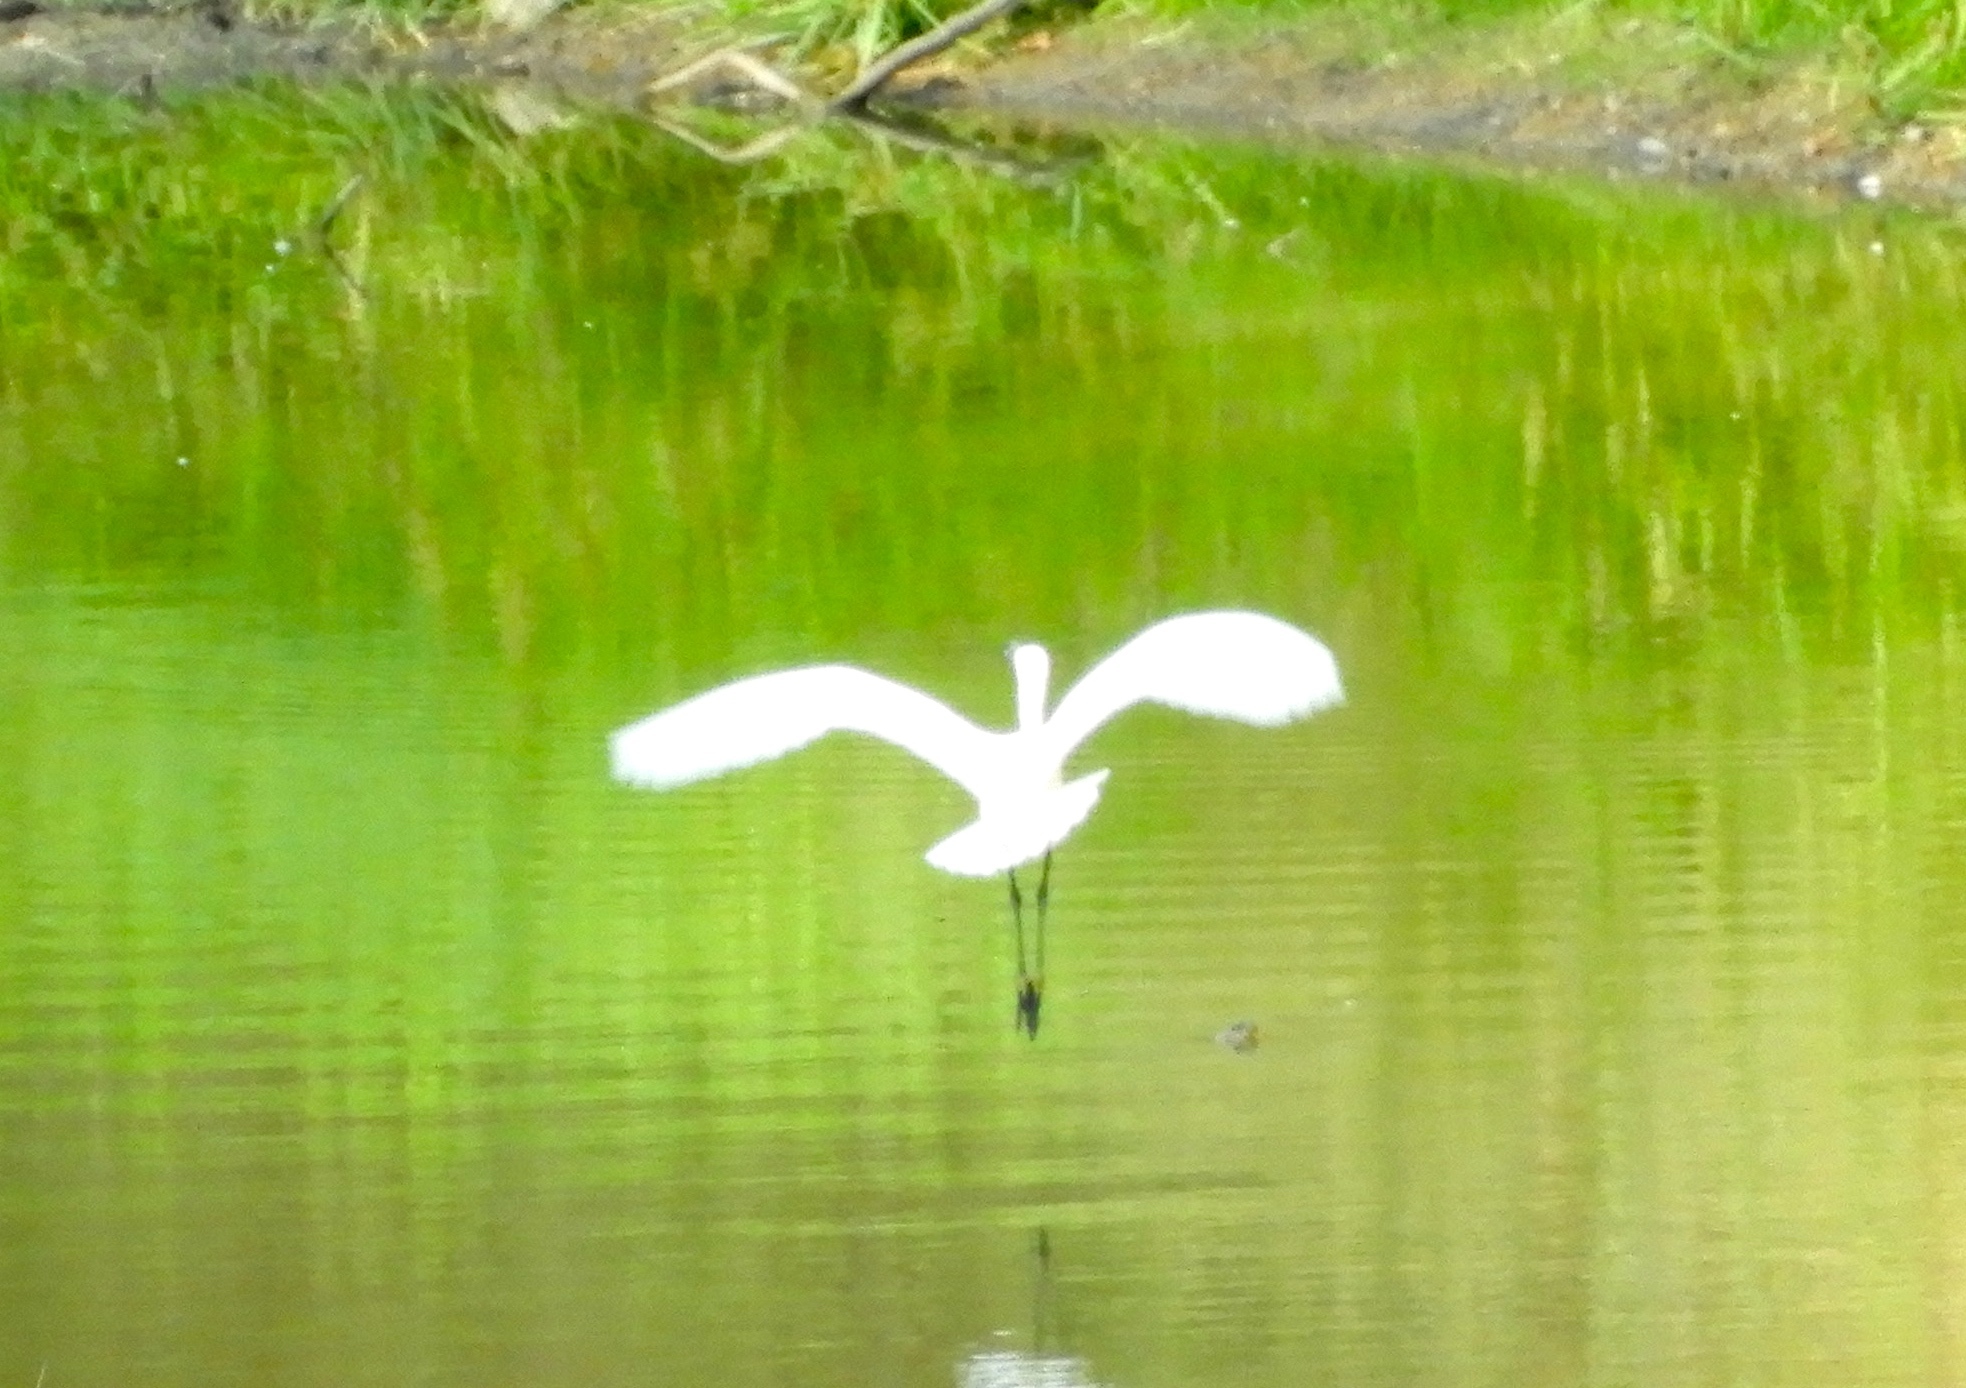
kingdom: Animalia
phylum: Chordata
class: Aves
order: Pelecaniformes
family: Ardeidae
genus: Ardea
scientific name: Ardea alba
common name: Great egret
